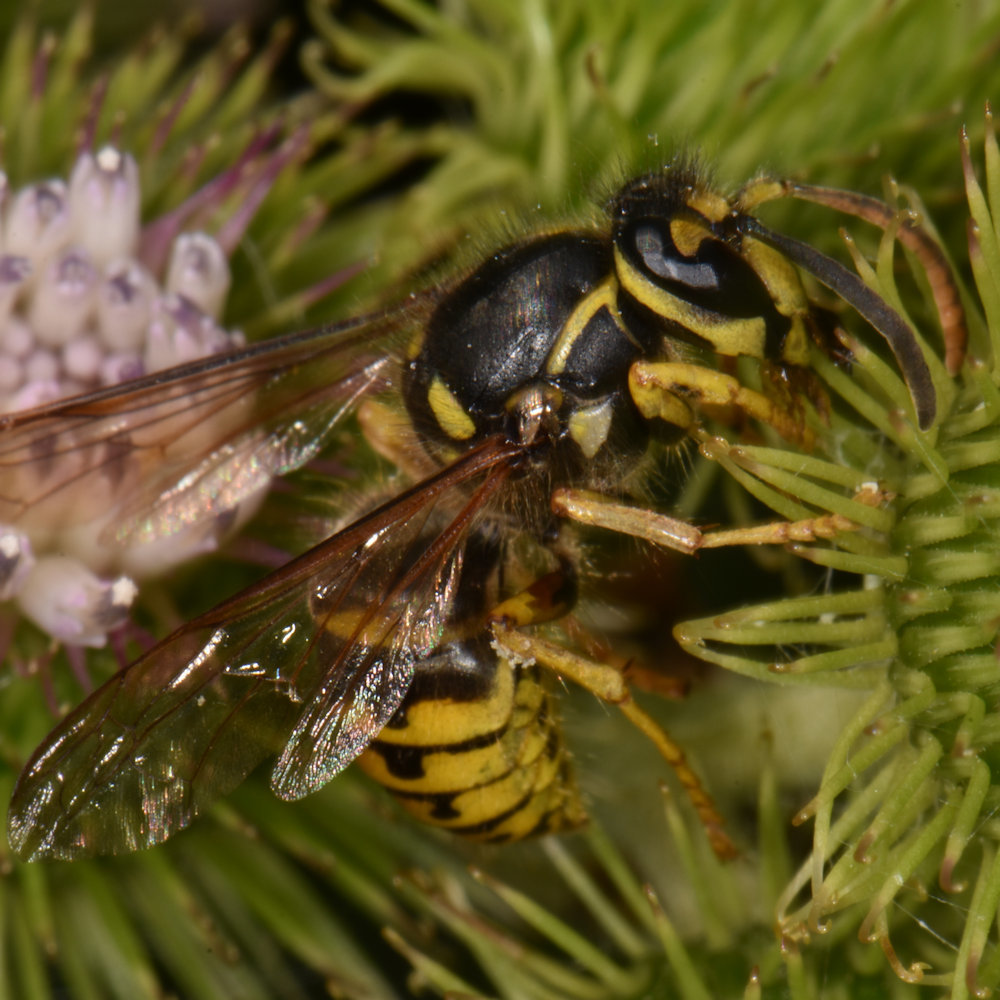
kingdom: Animalia
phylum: Arthropoda
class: Insecta
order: Hymenoptera
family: Vespidae
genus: Dolichovespula
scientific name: Dolichovespula arenaria
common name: Aerial yellowjacket
